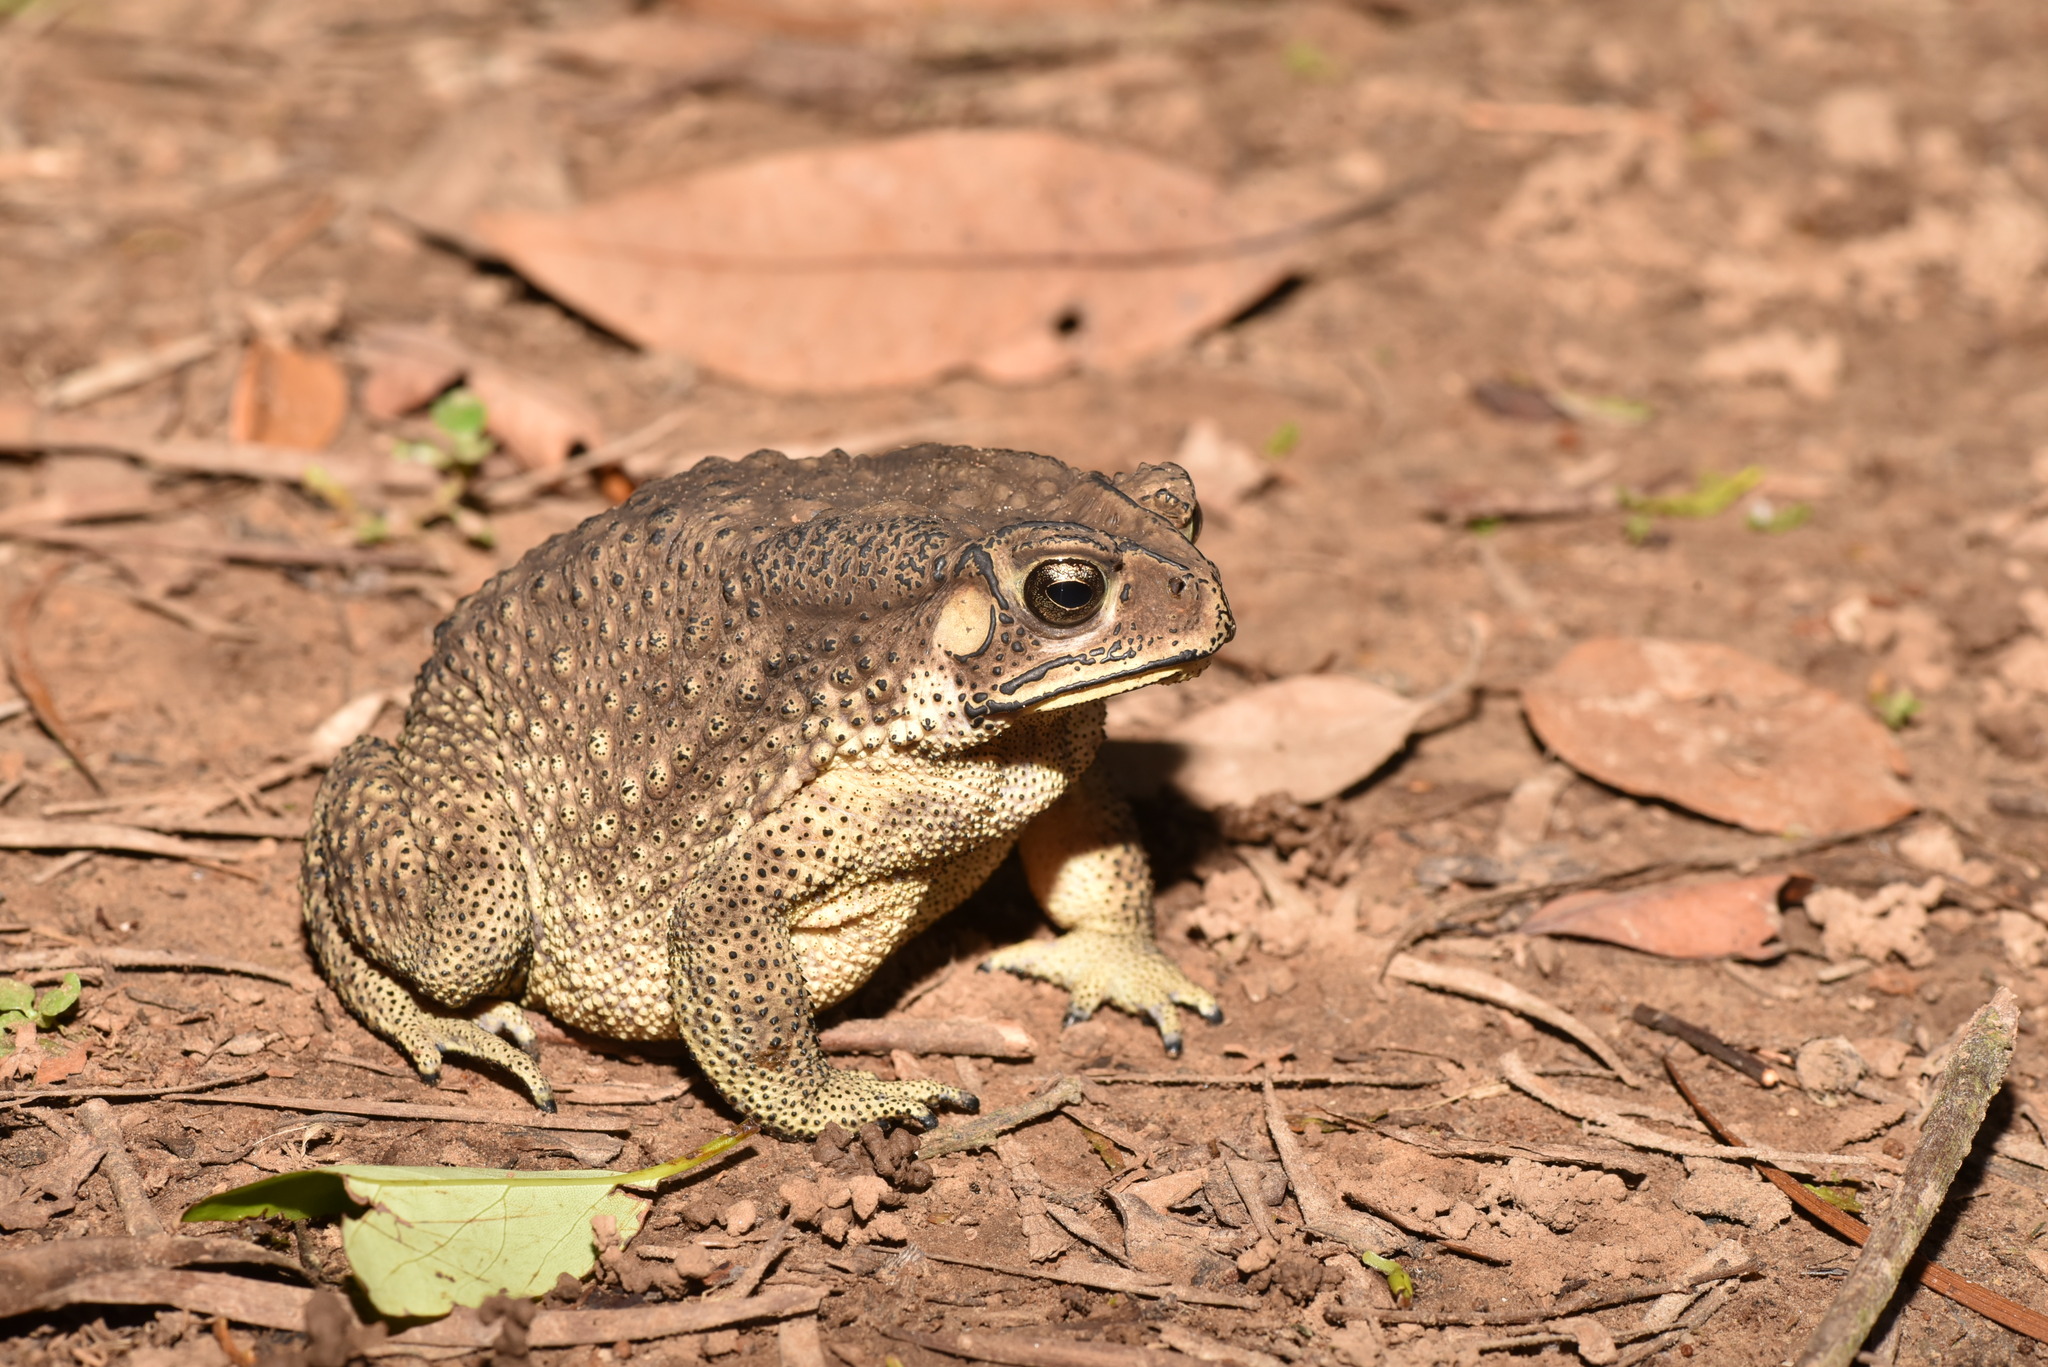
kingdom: Animalia
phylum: Chordata
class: Amphibia
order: Anura
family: Bufonidae
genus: Duttaphrynus
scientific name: Duttaphrynus melanostictus
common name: Common sunda toad
